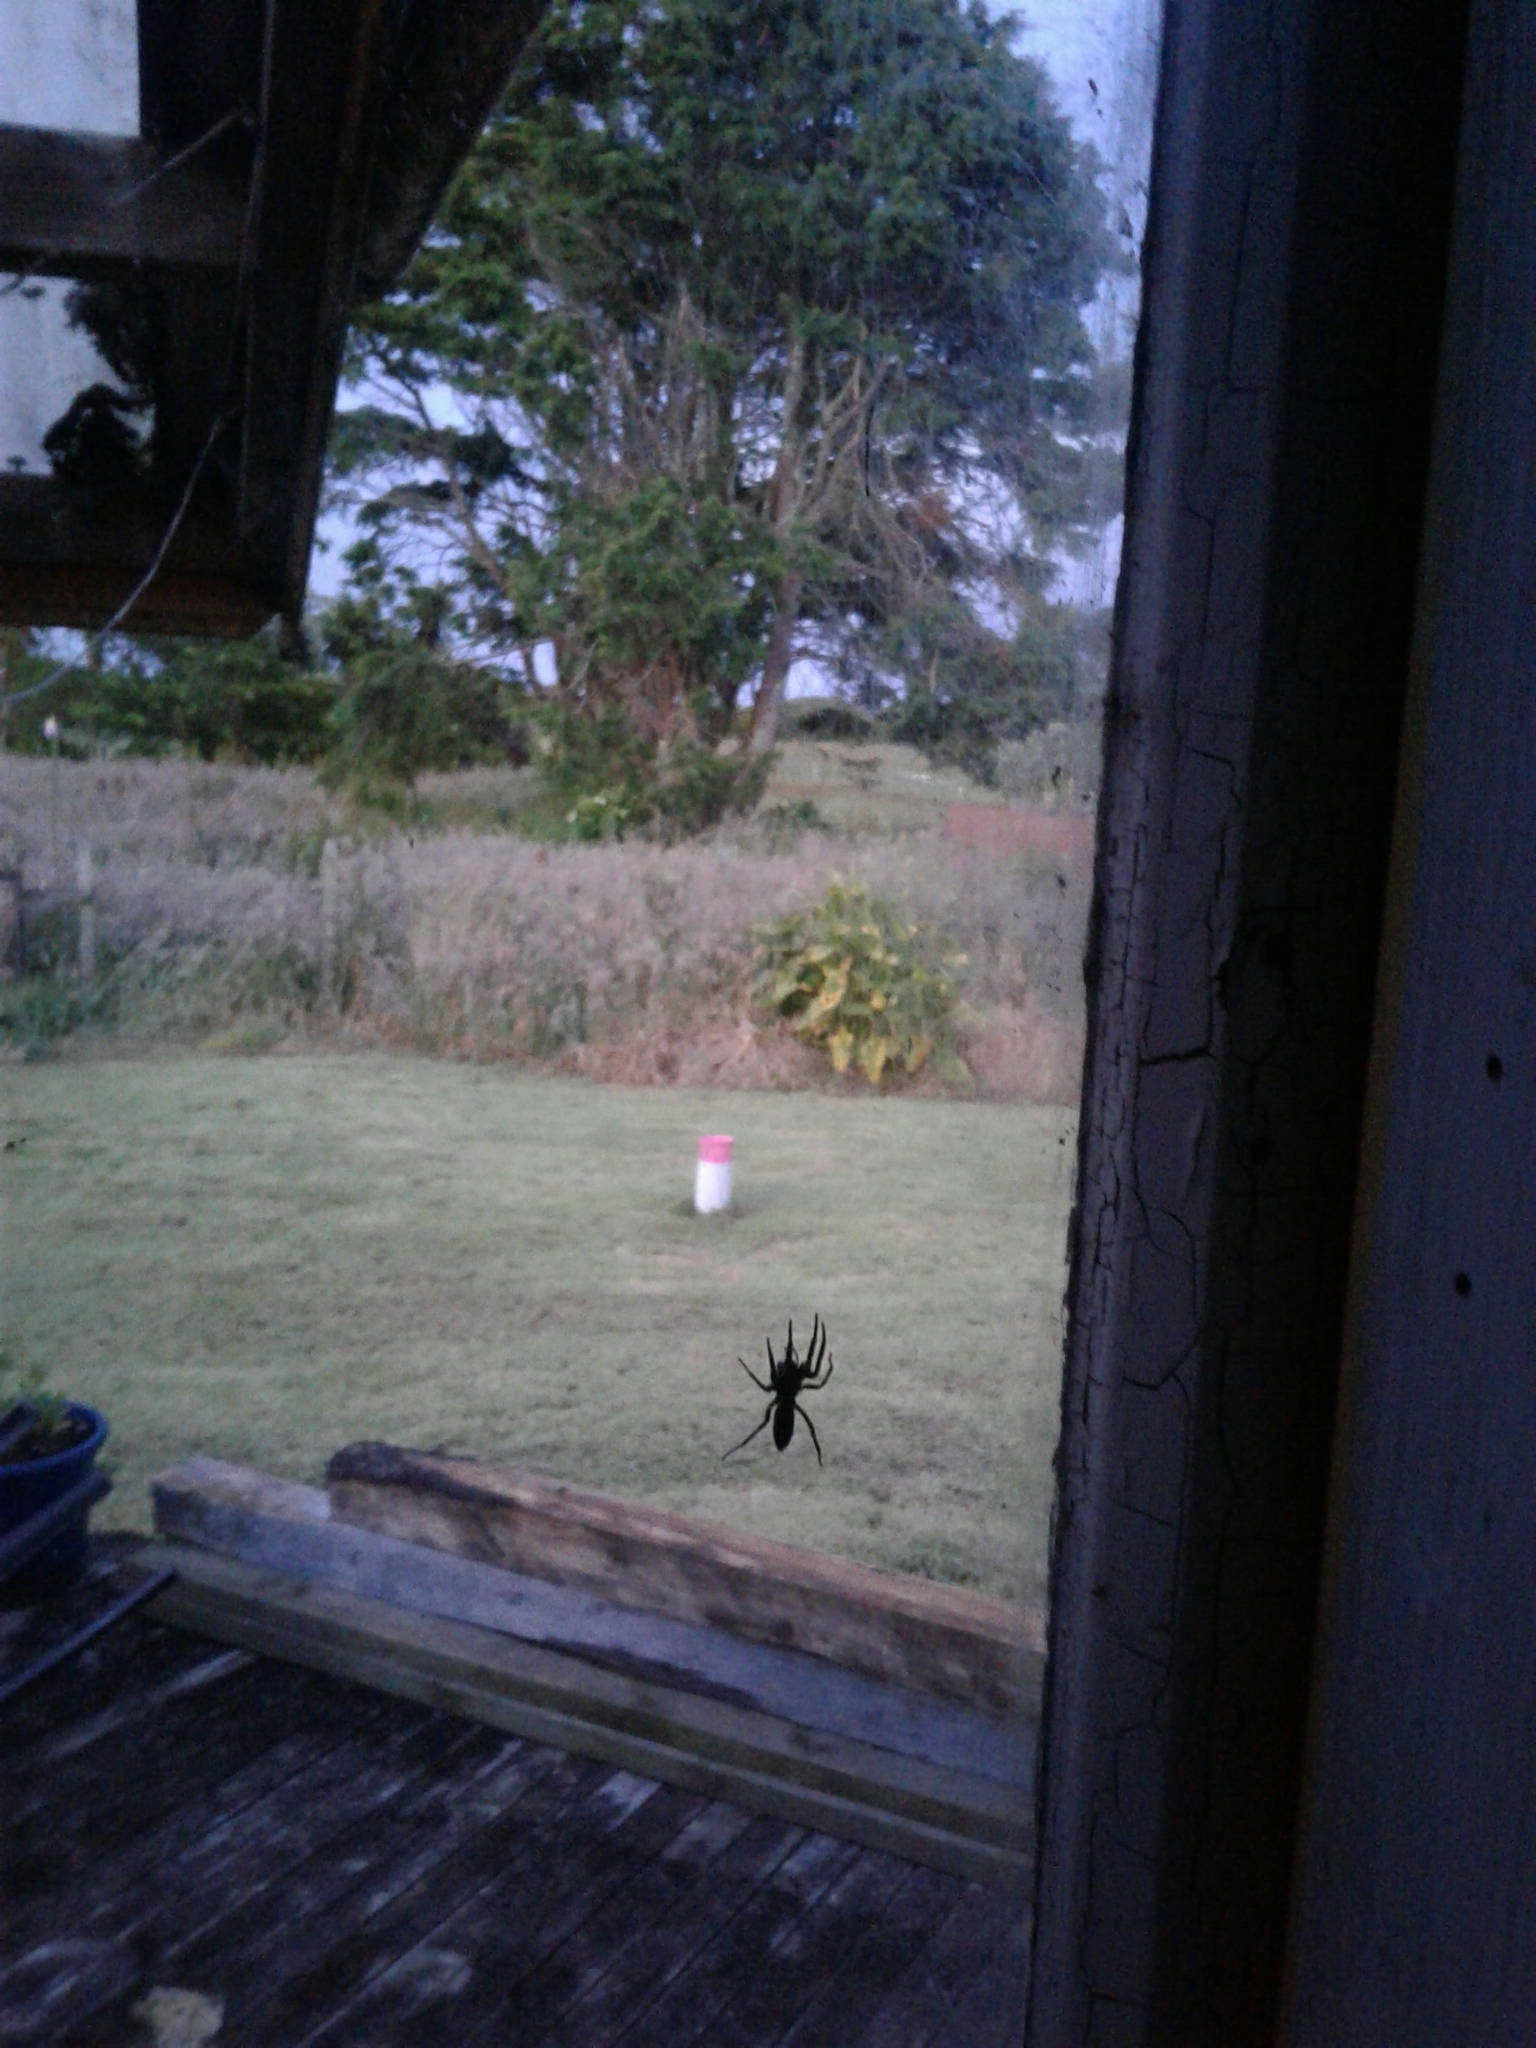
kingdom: Animalia
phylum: Arthropoda
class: Arachnida
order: Araneae
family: Lamponidae
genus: Lampona
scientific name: Lampona cylindrata
